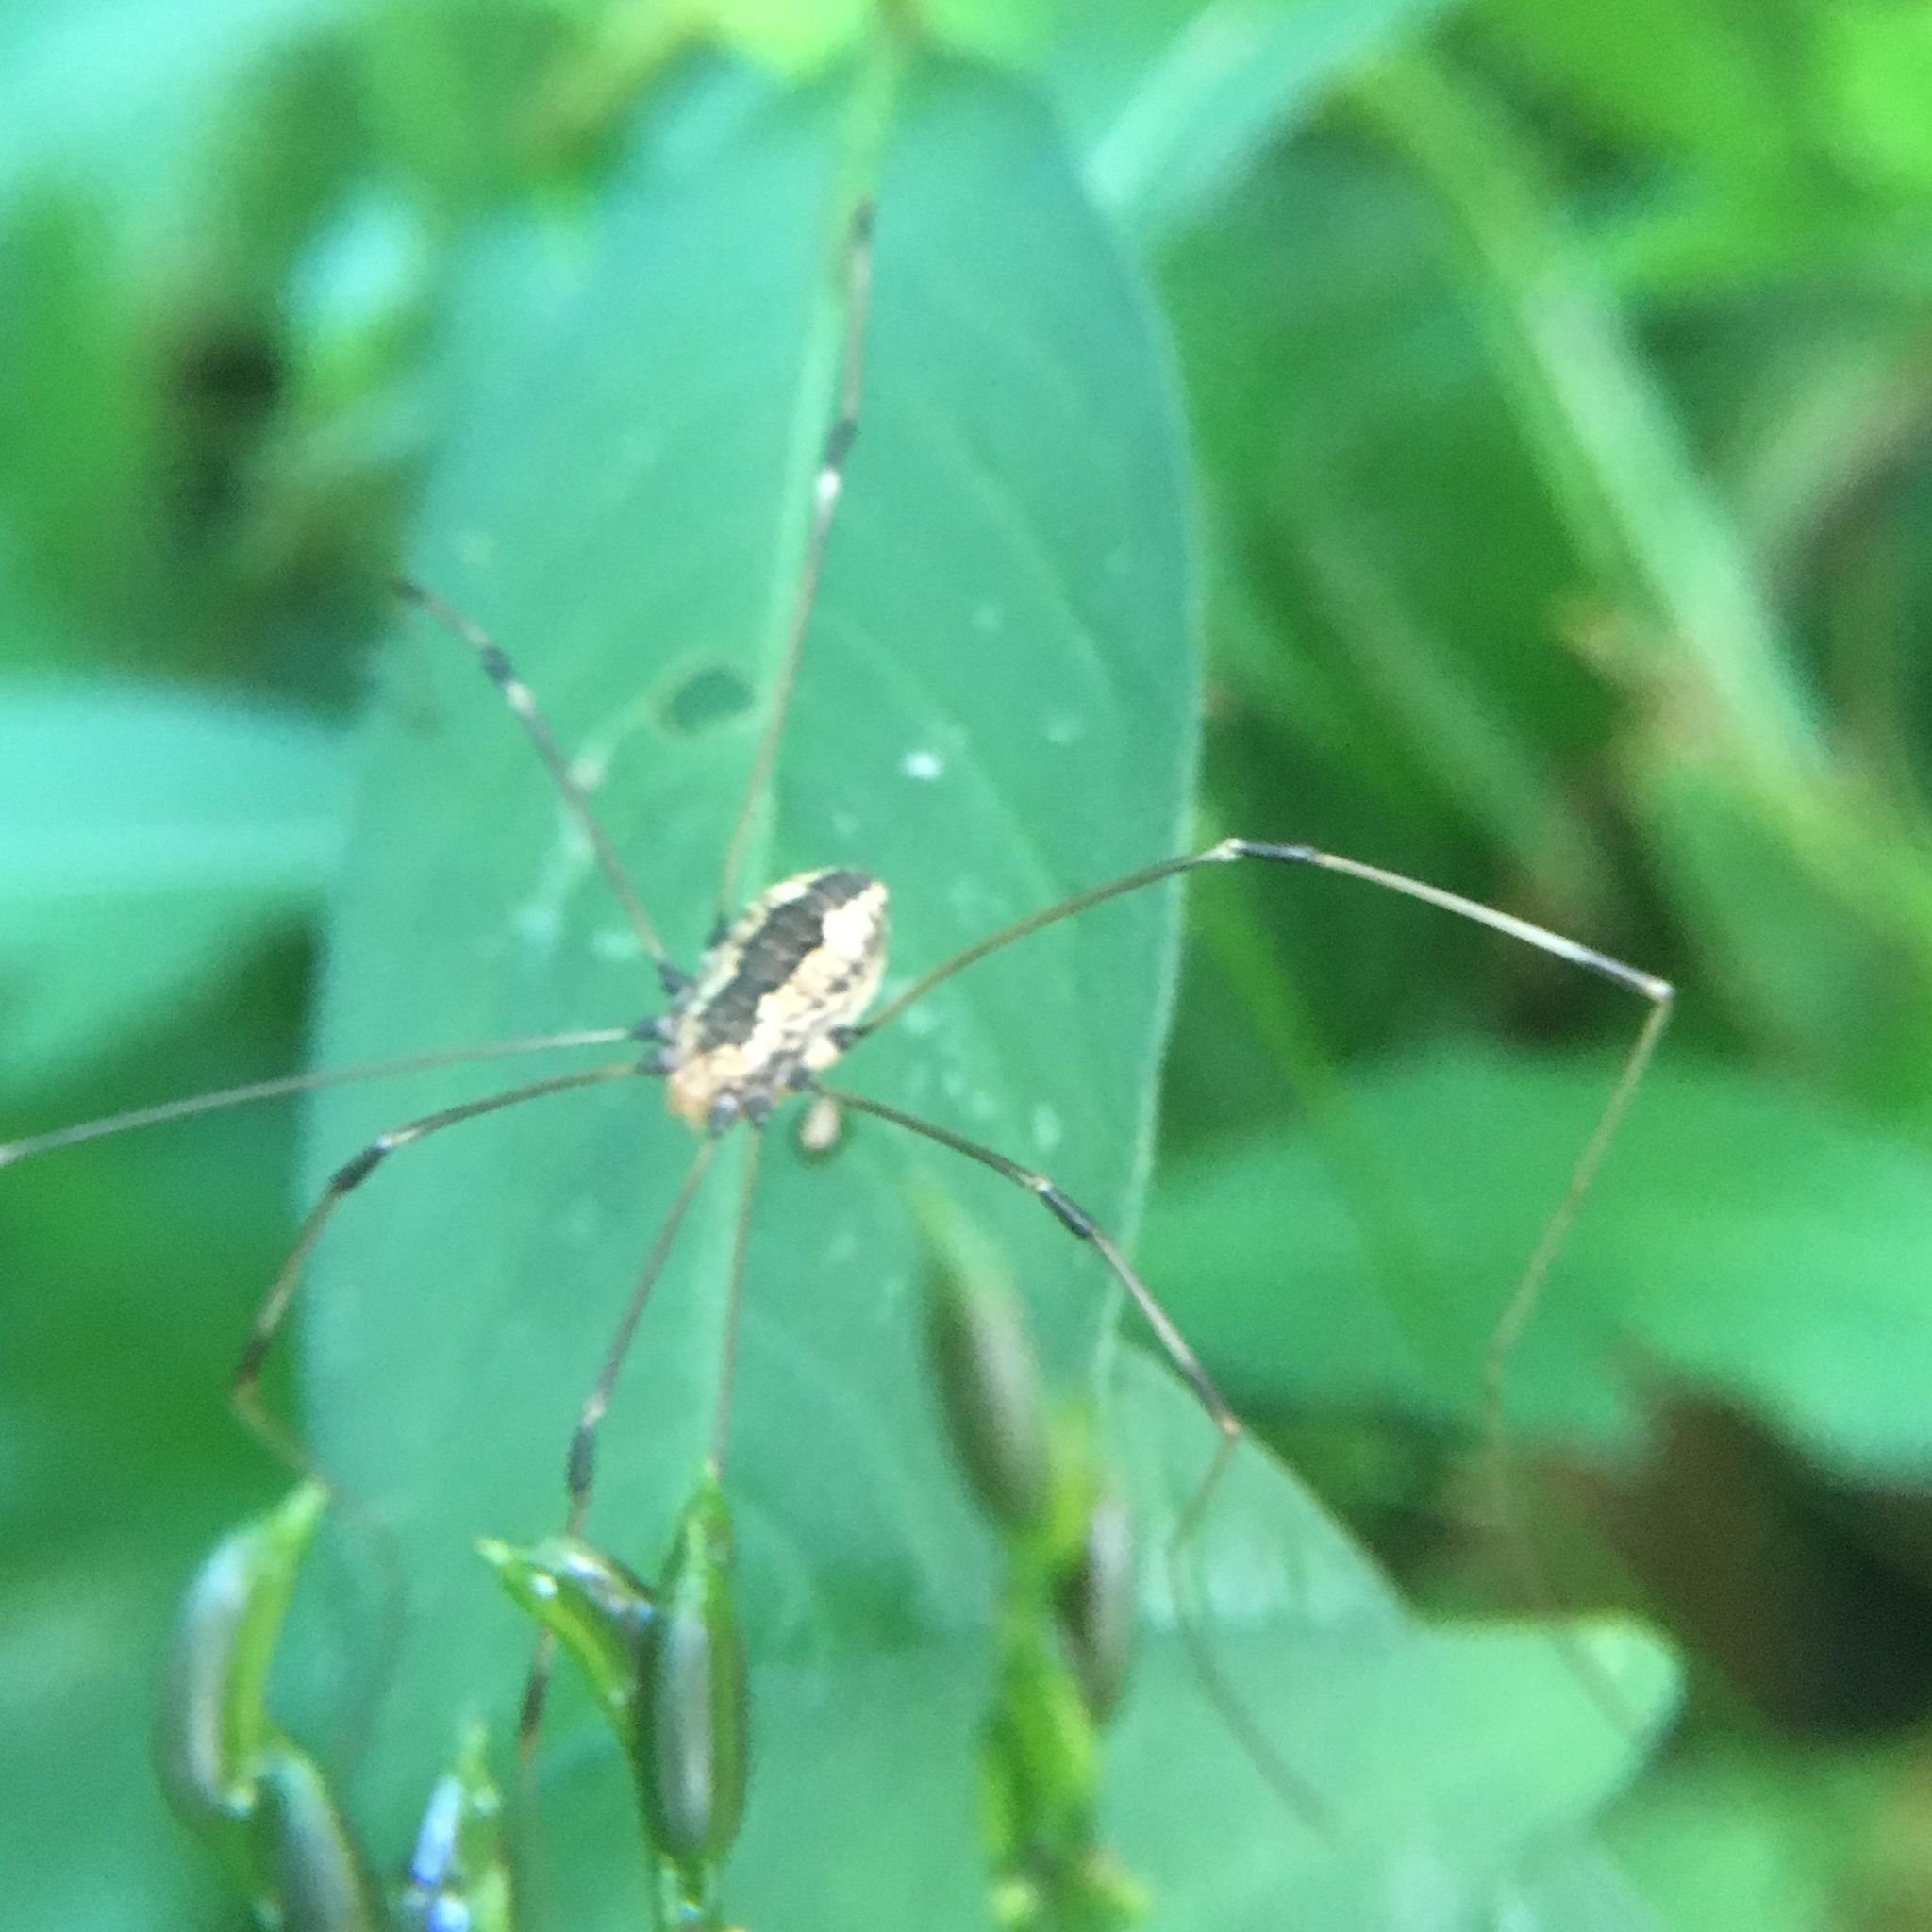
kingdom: Animalia
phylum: Arthropoda
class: Arachnida
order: Opiliones
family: Sclerosomatidae
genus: Leiobunum
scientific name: Leiobunum vittatum
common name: Eastern harvestman
